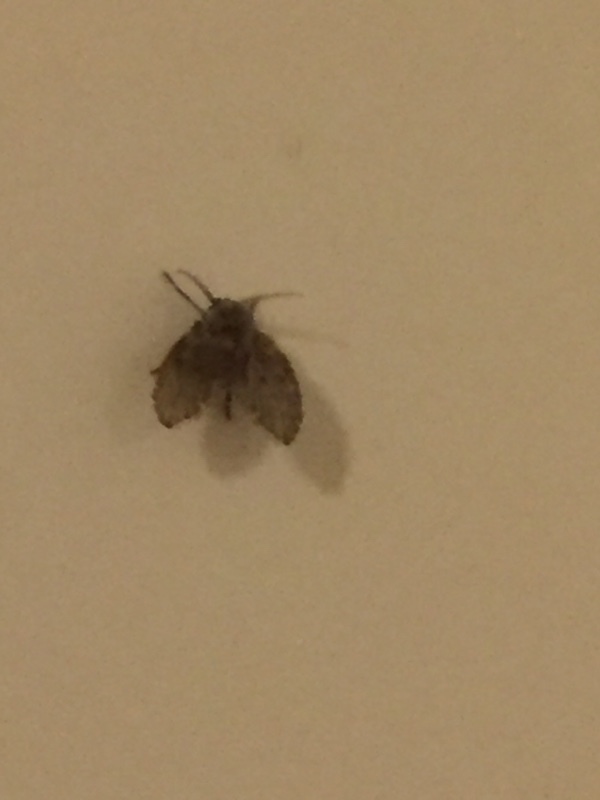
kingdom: Animalia
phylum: Arthropoda
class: Insecta
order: Diptera
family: Psychodidae
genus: Clogmia
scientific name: Clogmia albipunctatus
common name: White-spotted moth fly
